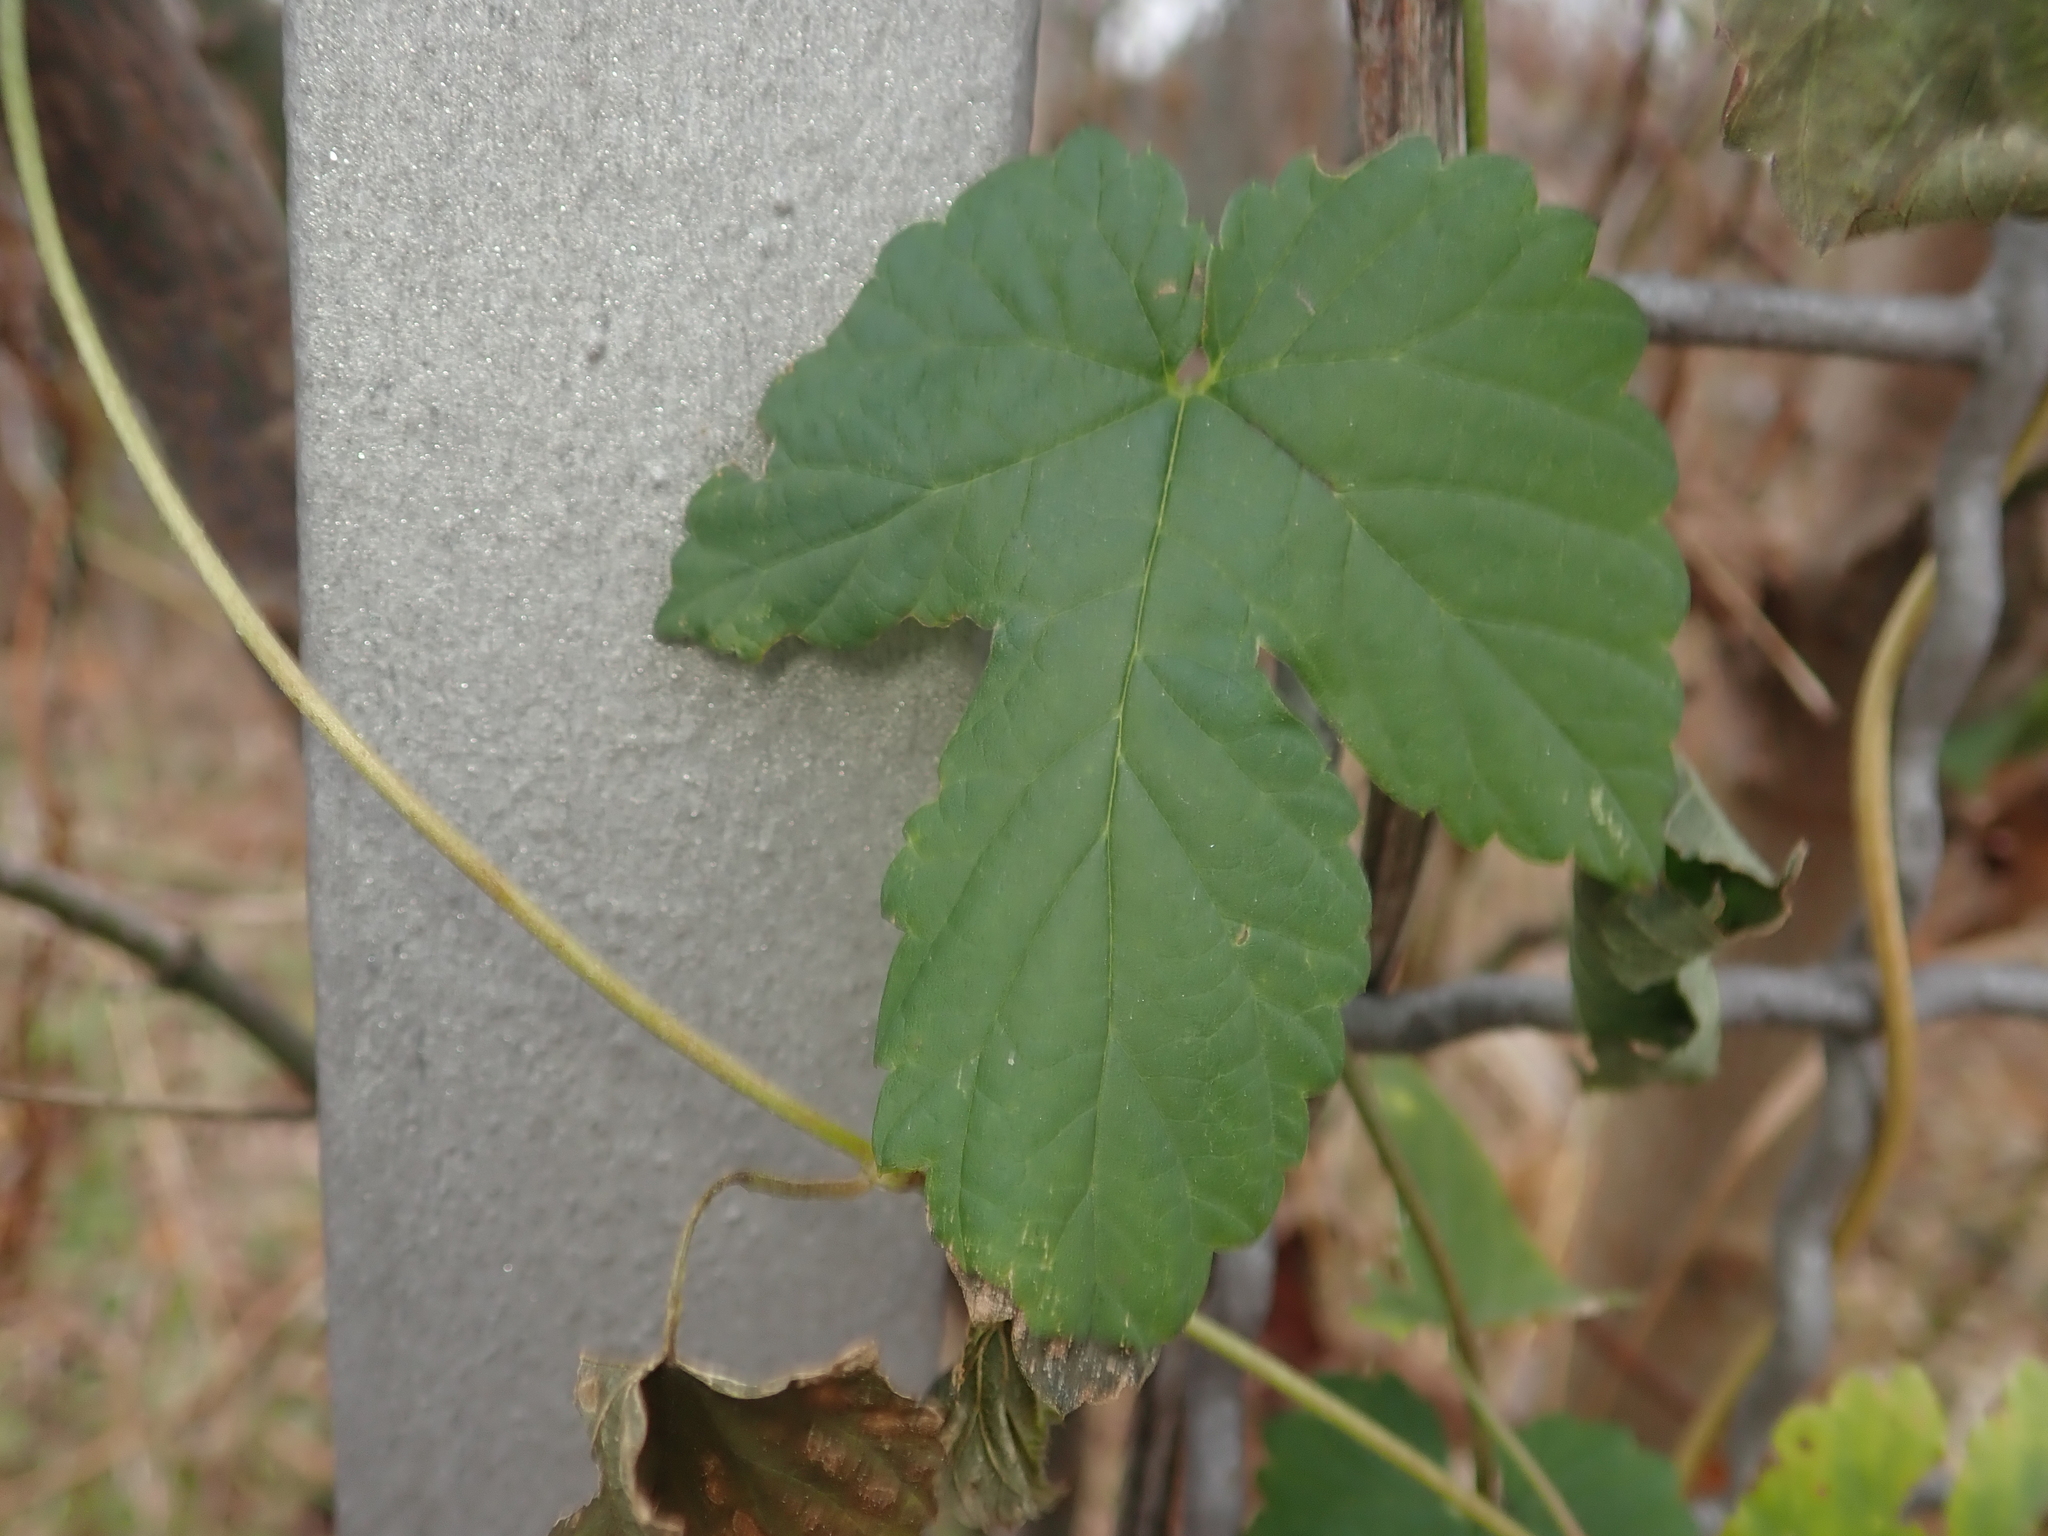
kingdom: Plantae
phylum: Tracheophyta
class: Magnoliopsida
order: Rosales
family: Cannabaceae
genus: Humulus
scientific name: Humulus lupulus
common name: Hop
